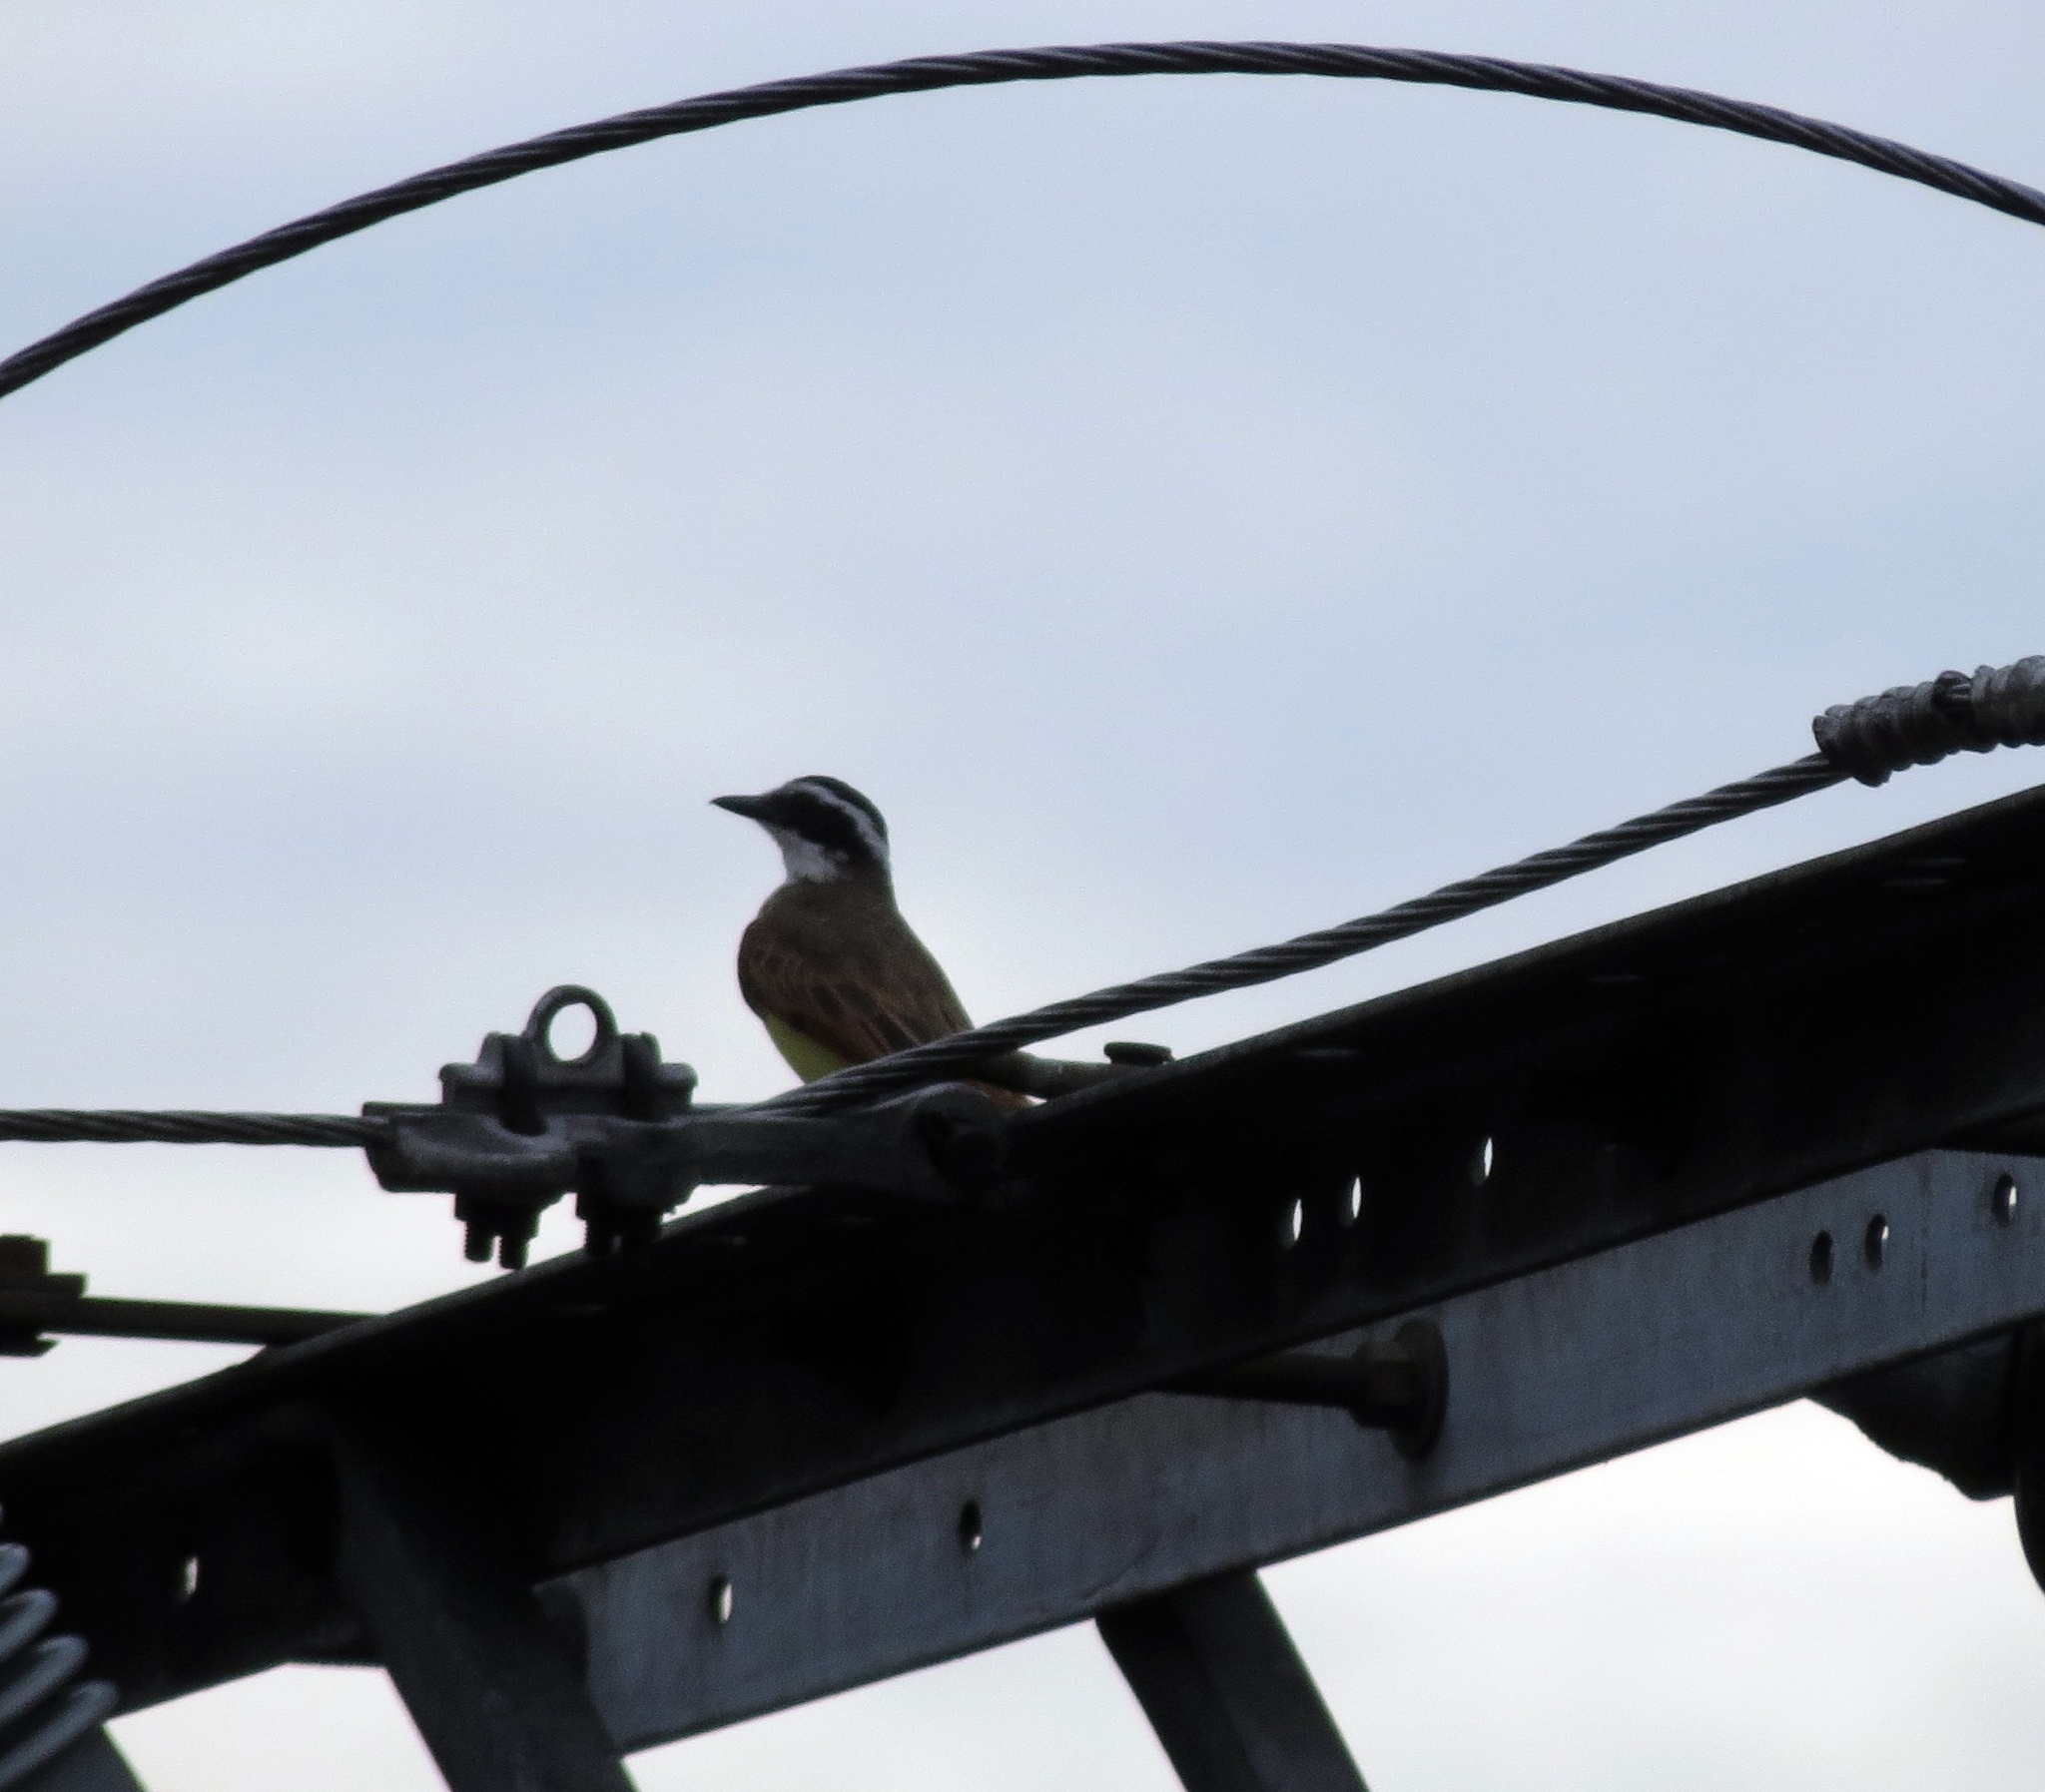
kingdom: Animalia
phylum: Chordata
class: Aves
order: Passeriformes
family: Tyrannidae
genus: Pitangus
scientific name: Pitangus sulphuratus
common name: Great kiskadee
